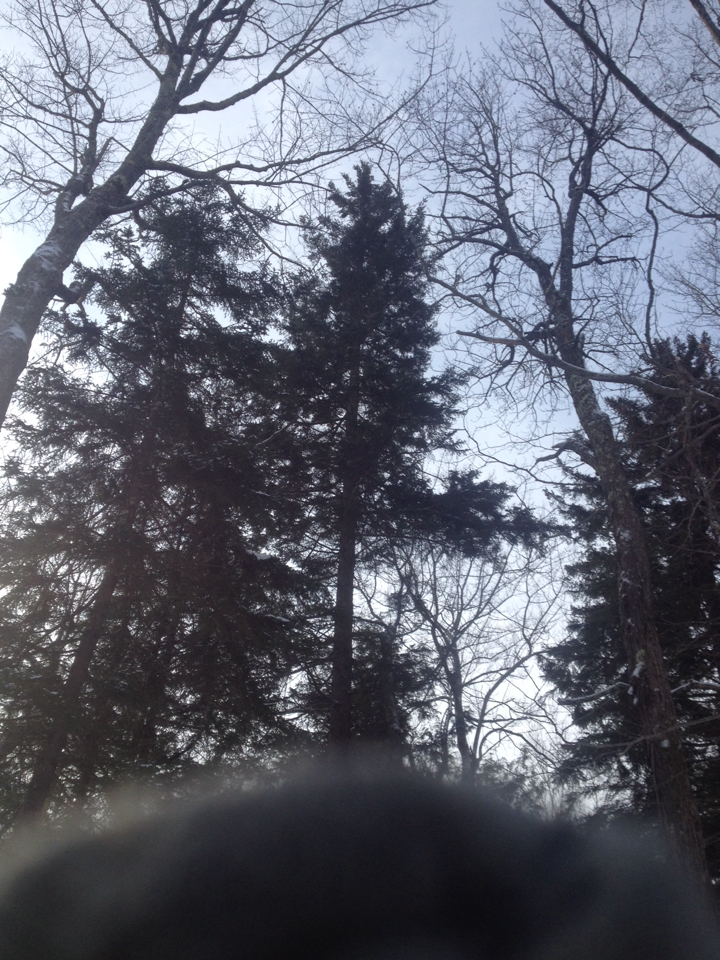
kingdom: Plantae
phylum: Tracheophyta
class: Pinopsida
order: Pinales
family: Pinaceae
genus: Picea
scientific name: Picea rubens
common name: Red spruce
